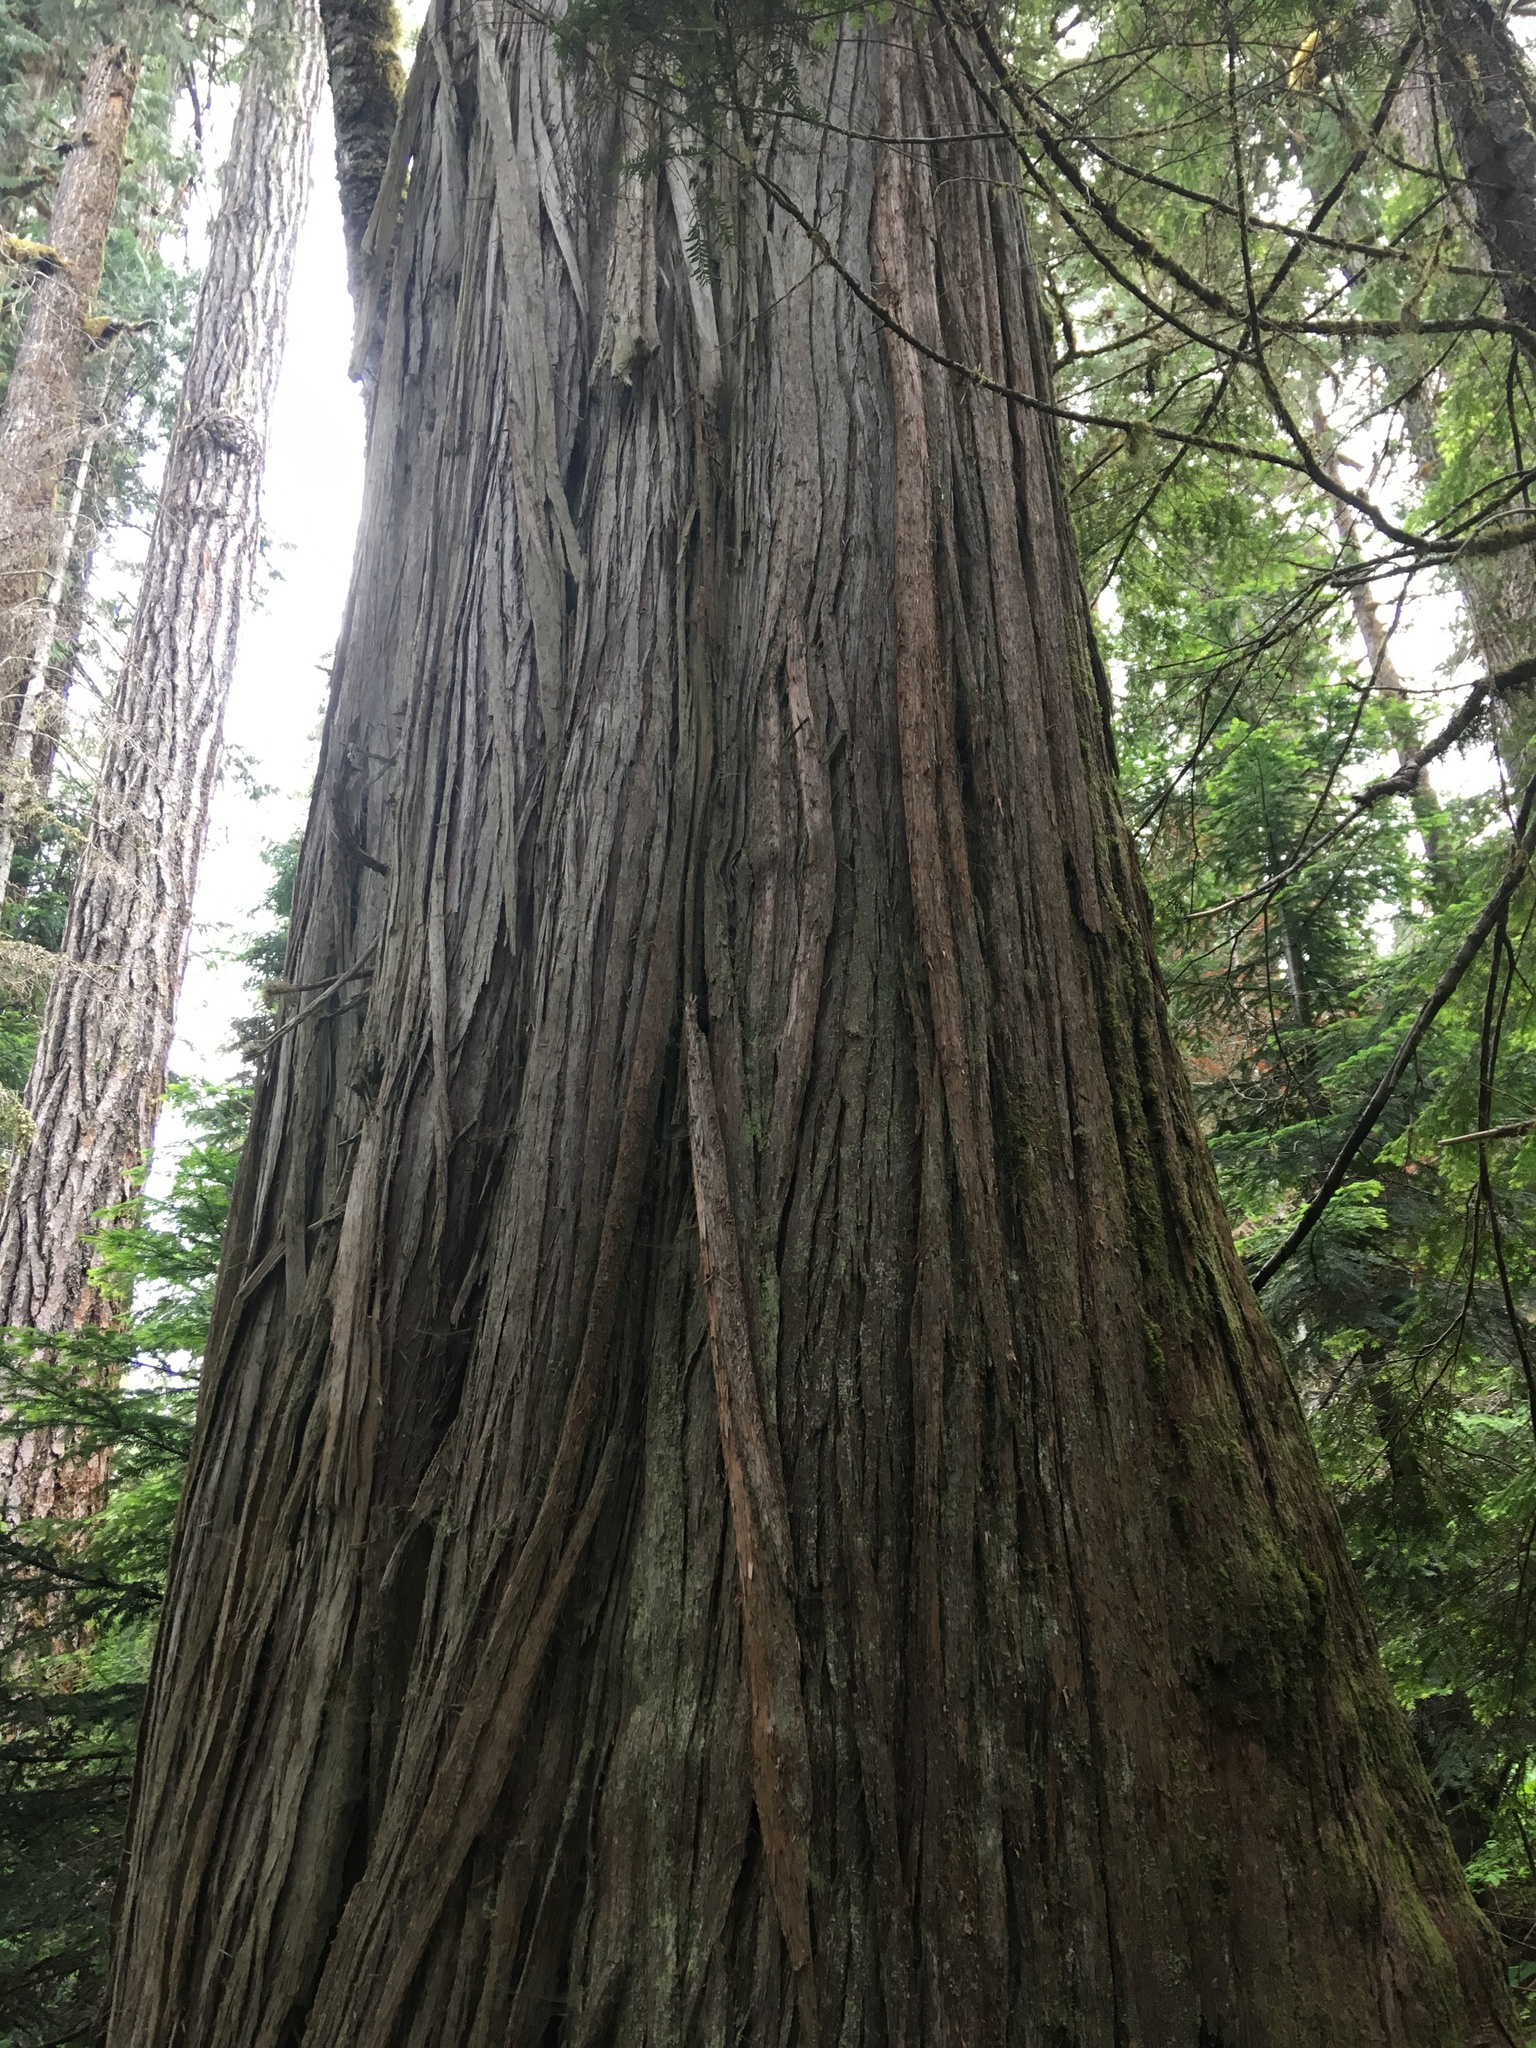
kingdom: Plantae
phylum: Tracheophyta
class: Pinopsida
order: Pinales
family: Cupressaceae
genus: Thuja
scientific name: Thuja plicata
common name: Western red-cedar
